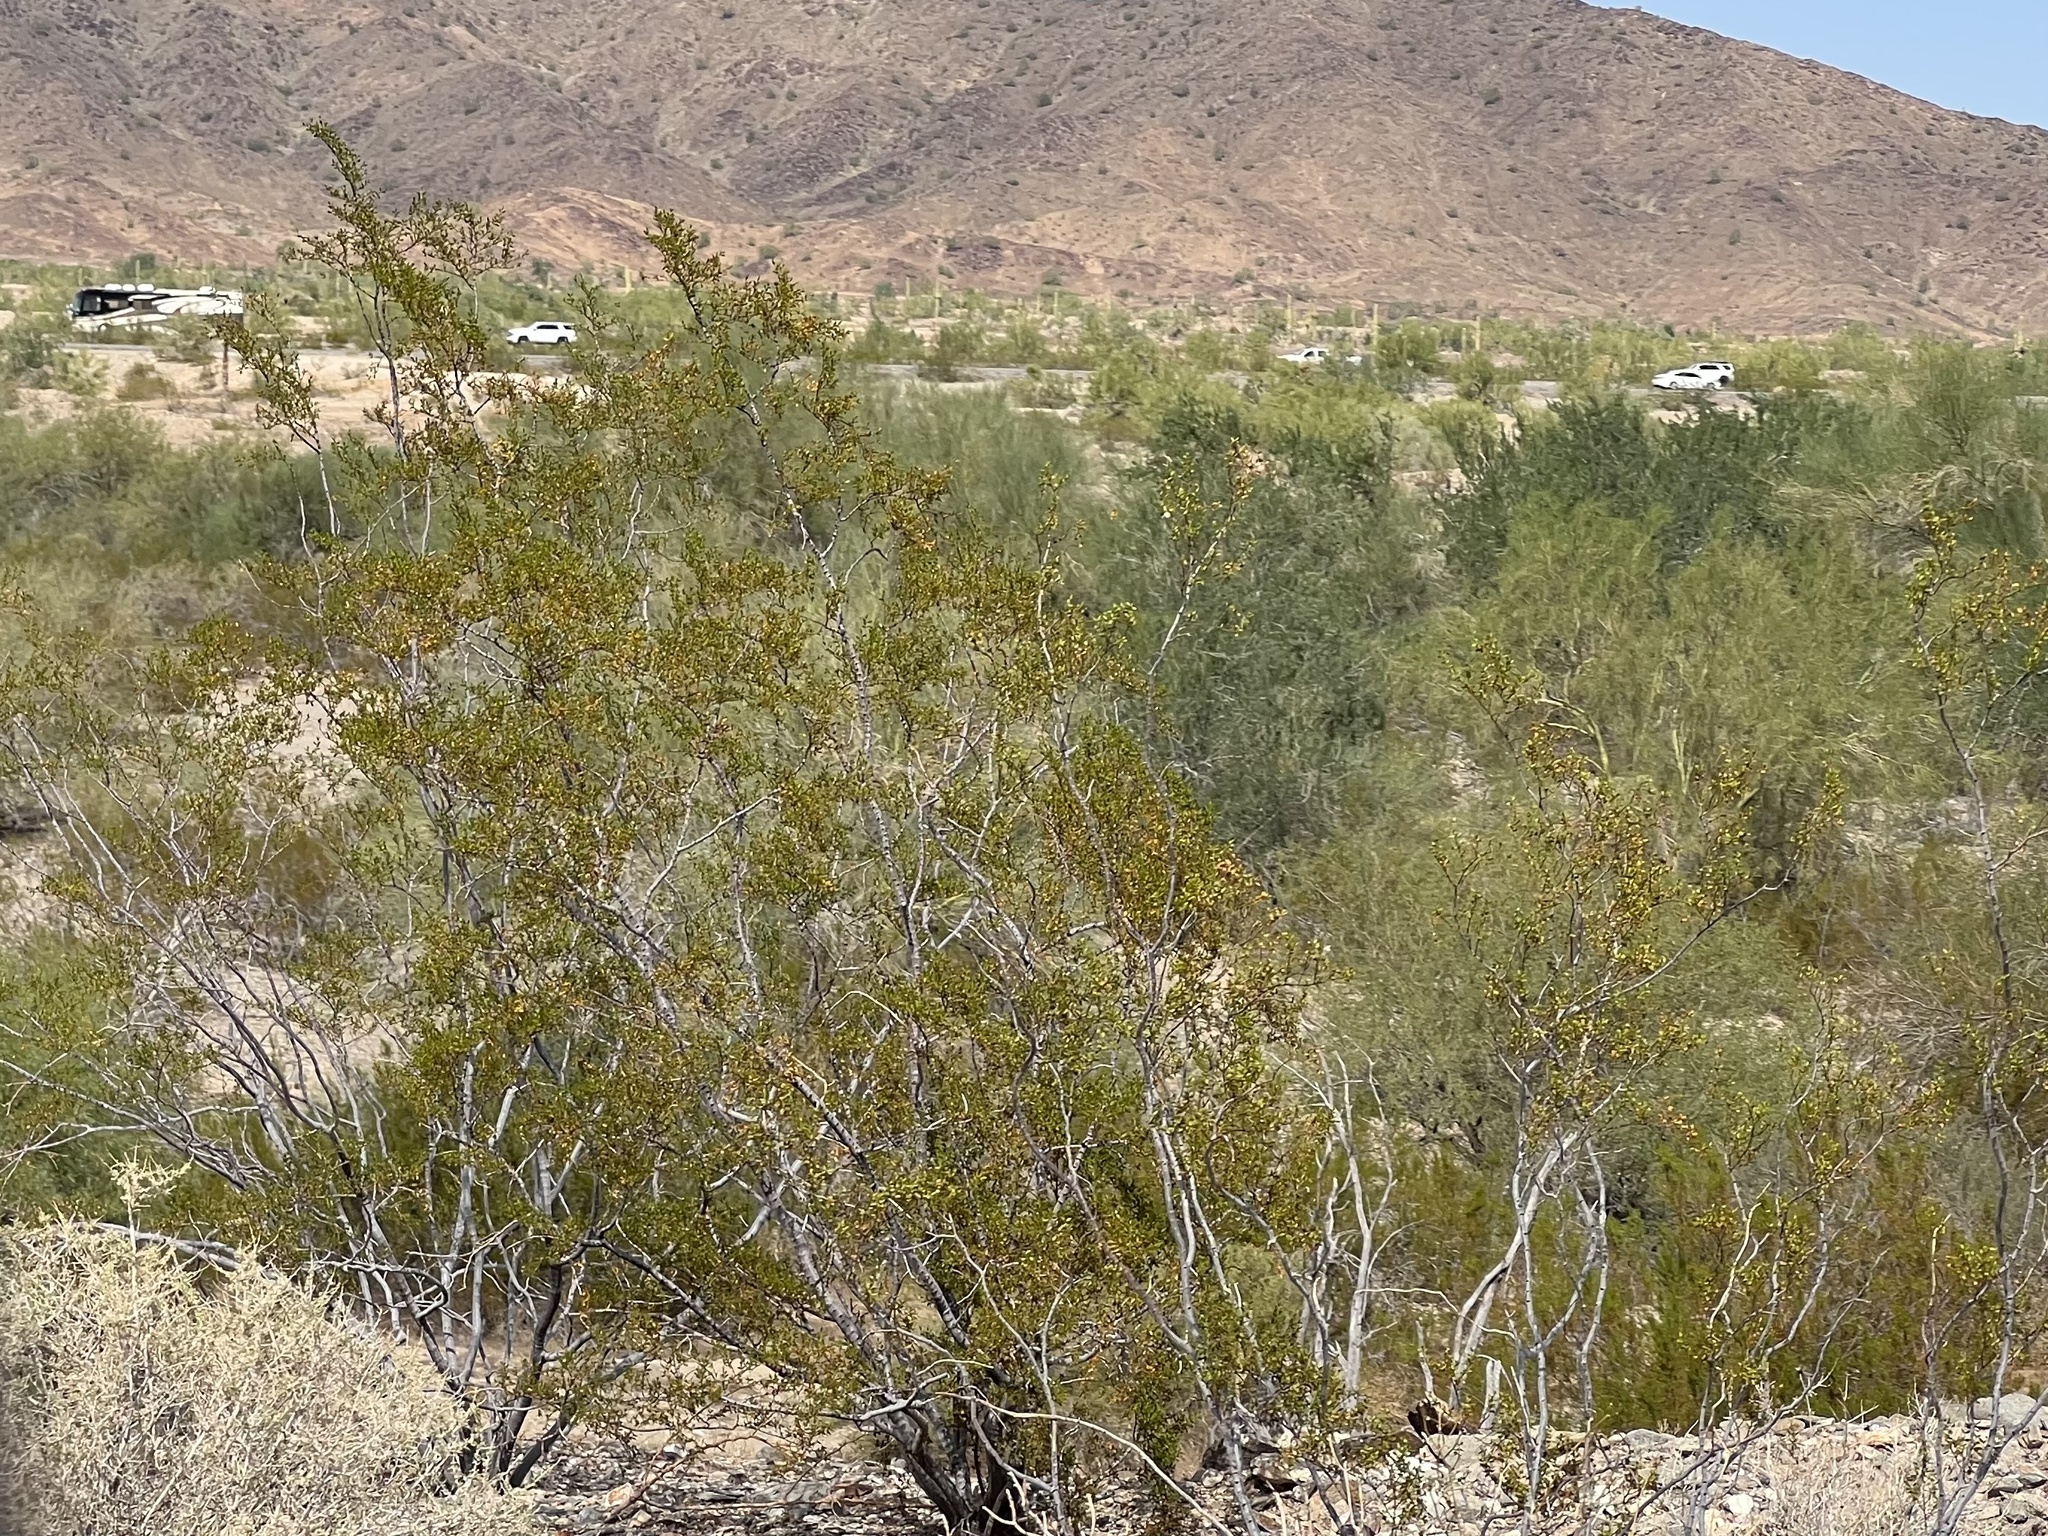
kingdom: Plantae
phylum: Tracheophyta
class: Magnoliopsida
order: Zygophyllales
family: Zygophyllaceae
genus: Larrea
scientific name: Larrea tridentata
